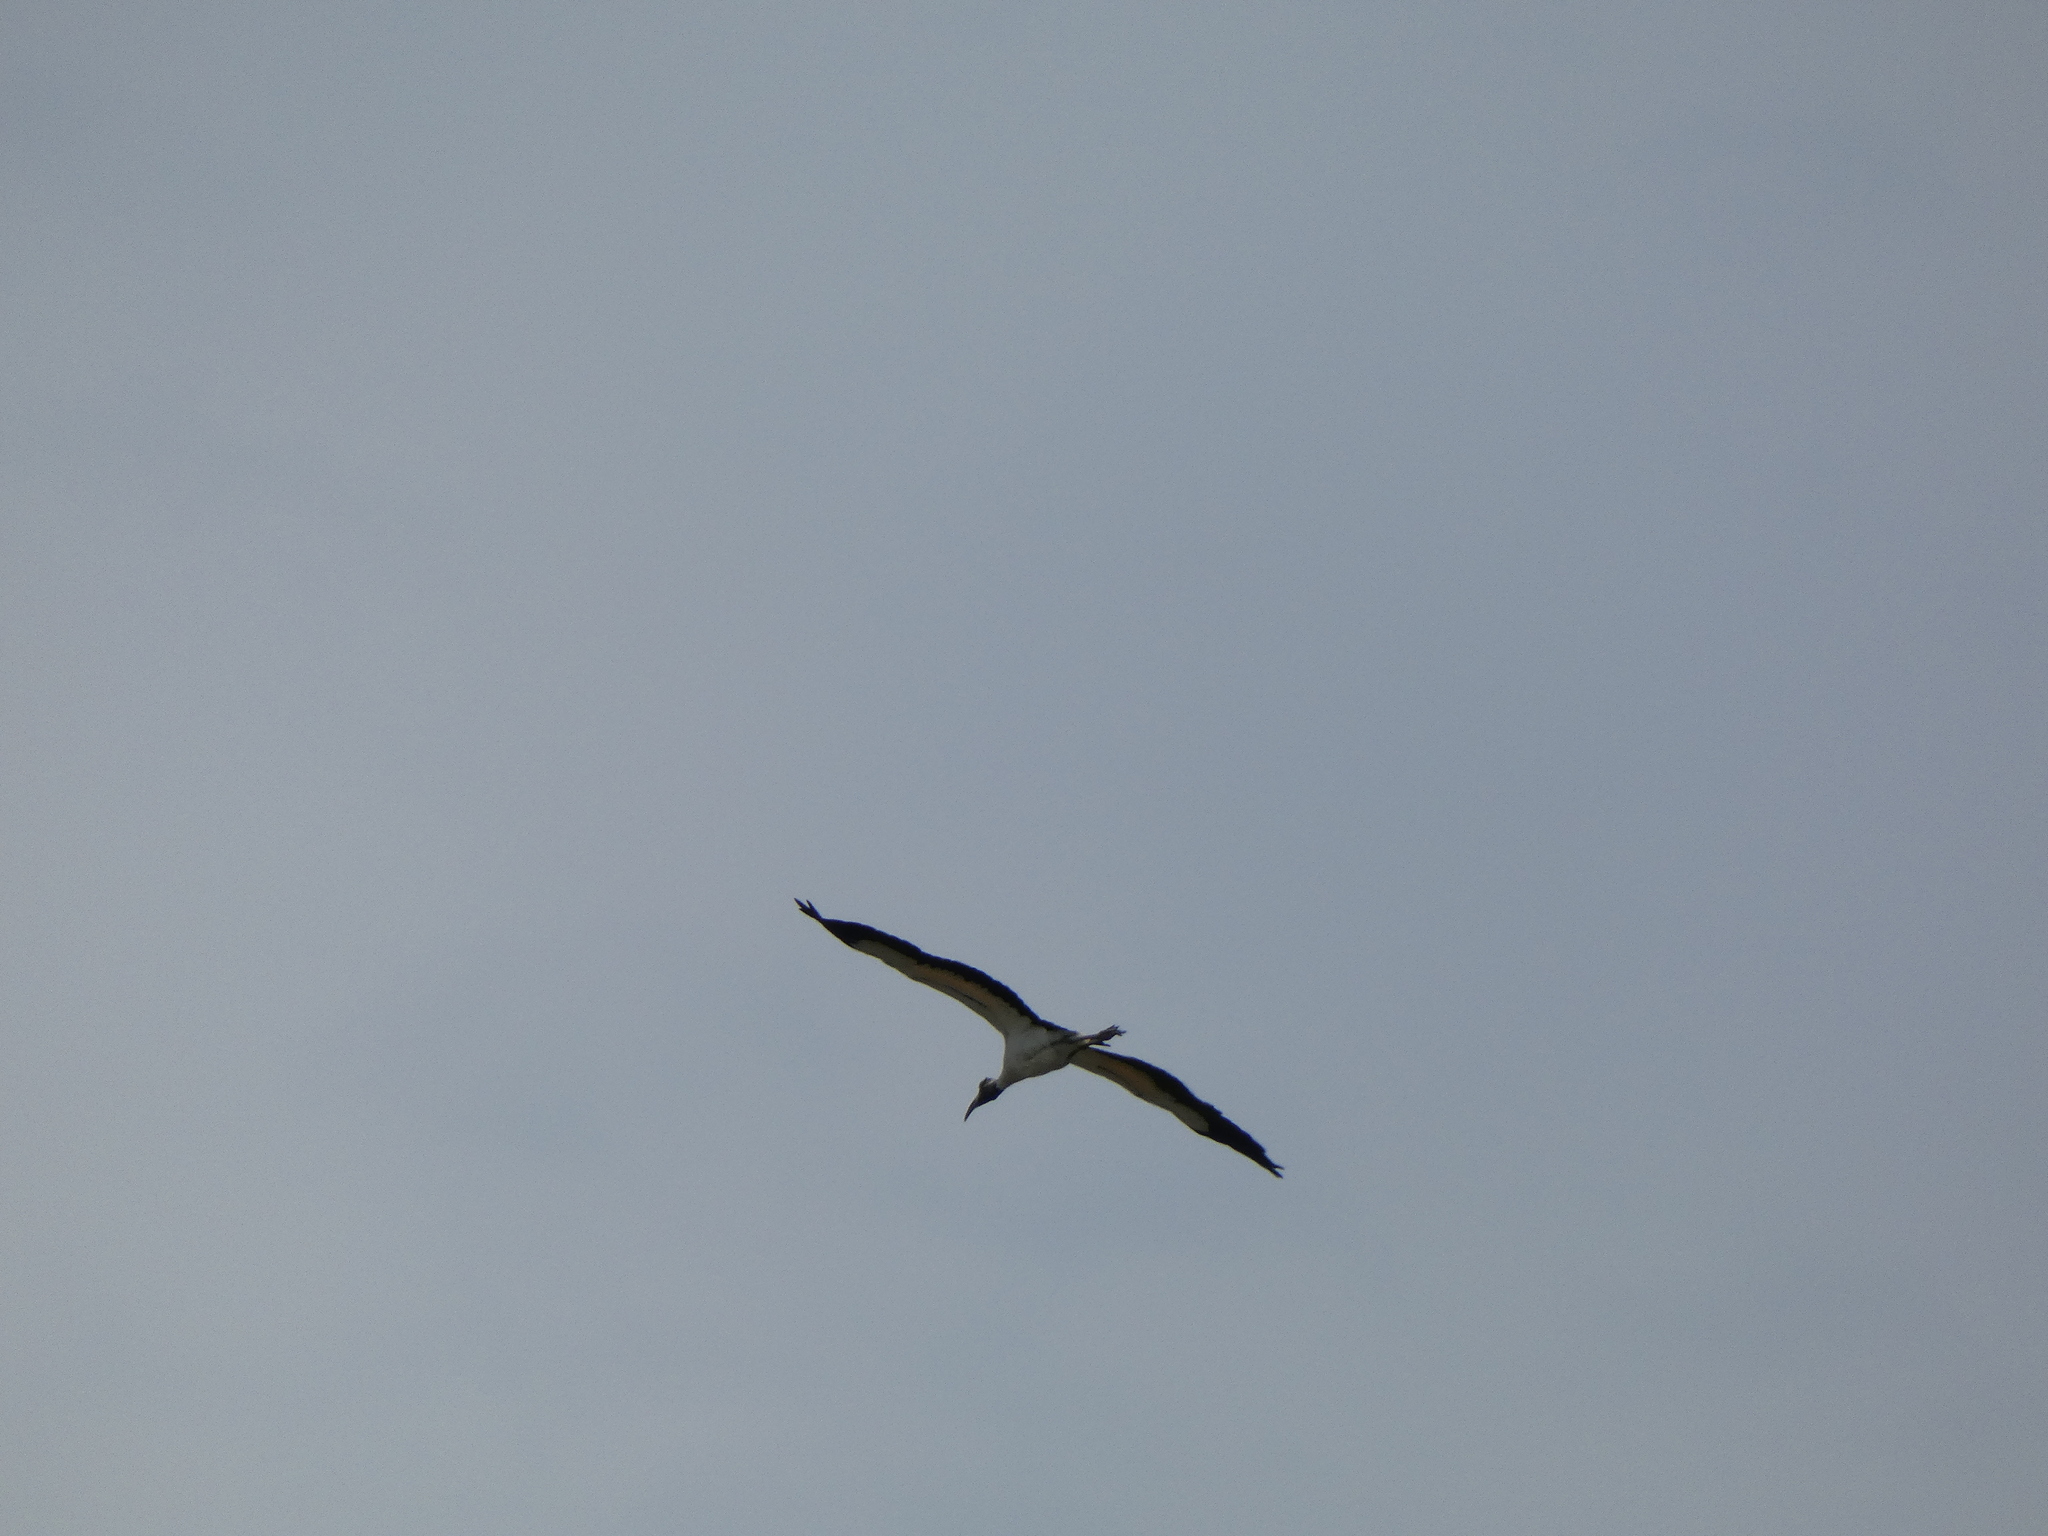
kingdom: Animalia
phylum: Chordata
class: Aves
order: Ciconiiformes
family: Ciconiidae
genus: Mycteria
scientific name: Mycteria americana
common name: Wood stork
